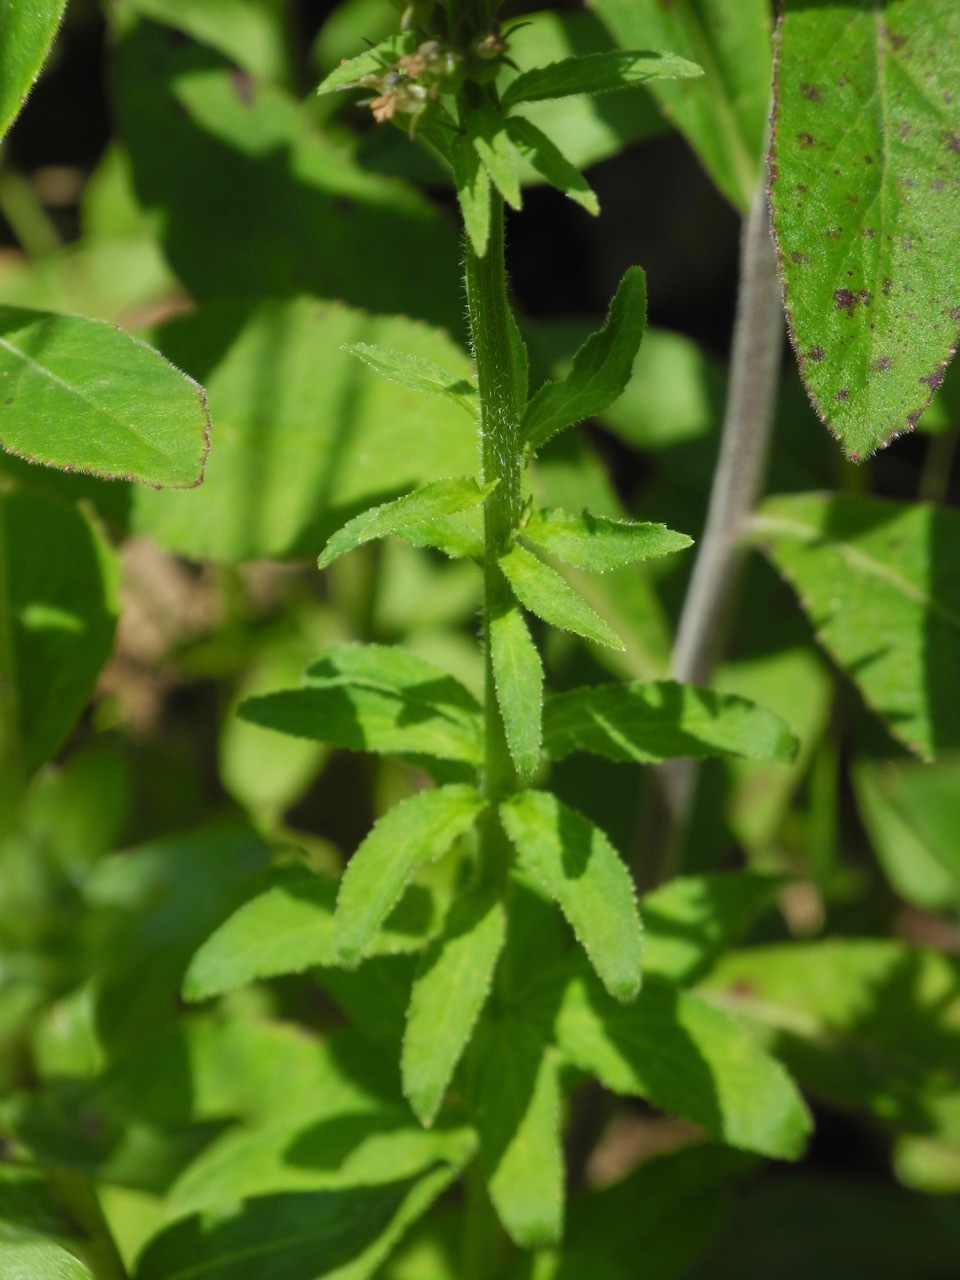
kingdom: Plantae
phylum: Tracheophyta
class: Magnoliopsida
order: Asterales
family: Campanulaceae
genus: Lobelia
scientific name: Lobelia inflata
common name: Indian tobacco
